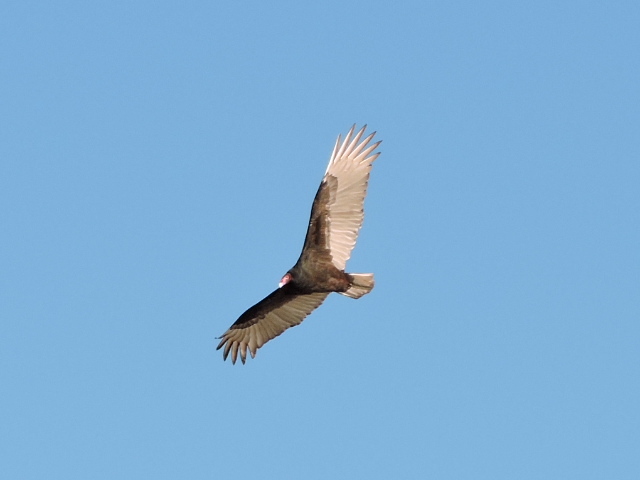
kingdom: Animalia
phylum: Chordata
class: Aves
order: Accipitriformes
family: Cathartidae
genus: Cathartes
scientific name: Cathartes aura
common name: Turkey vulture
